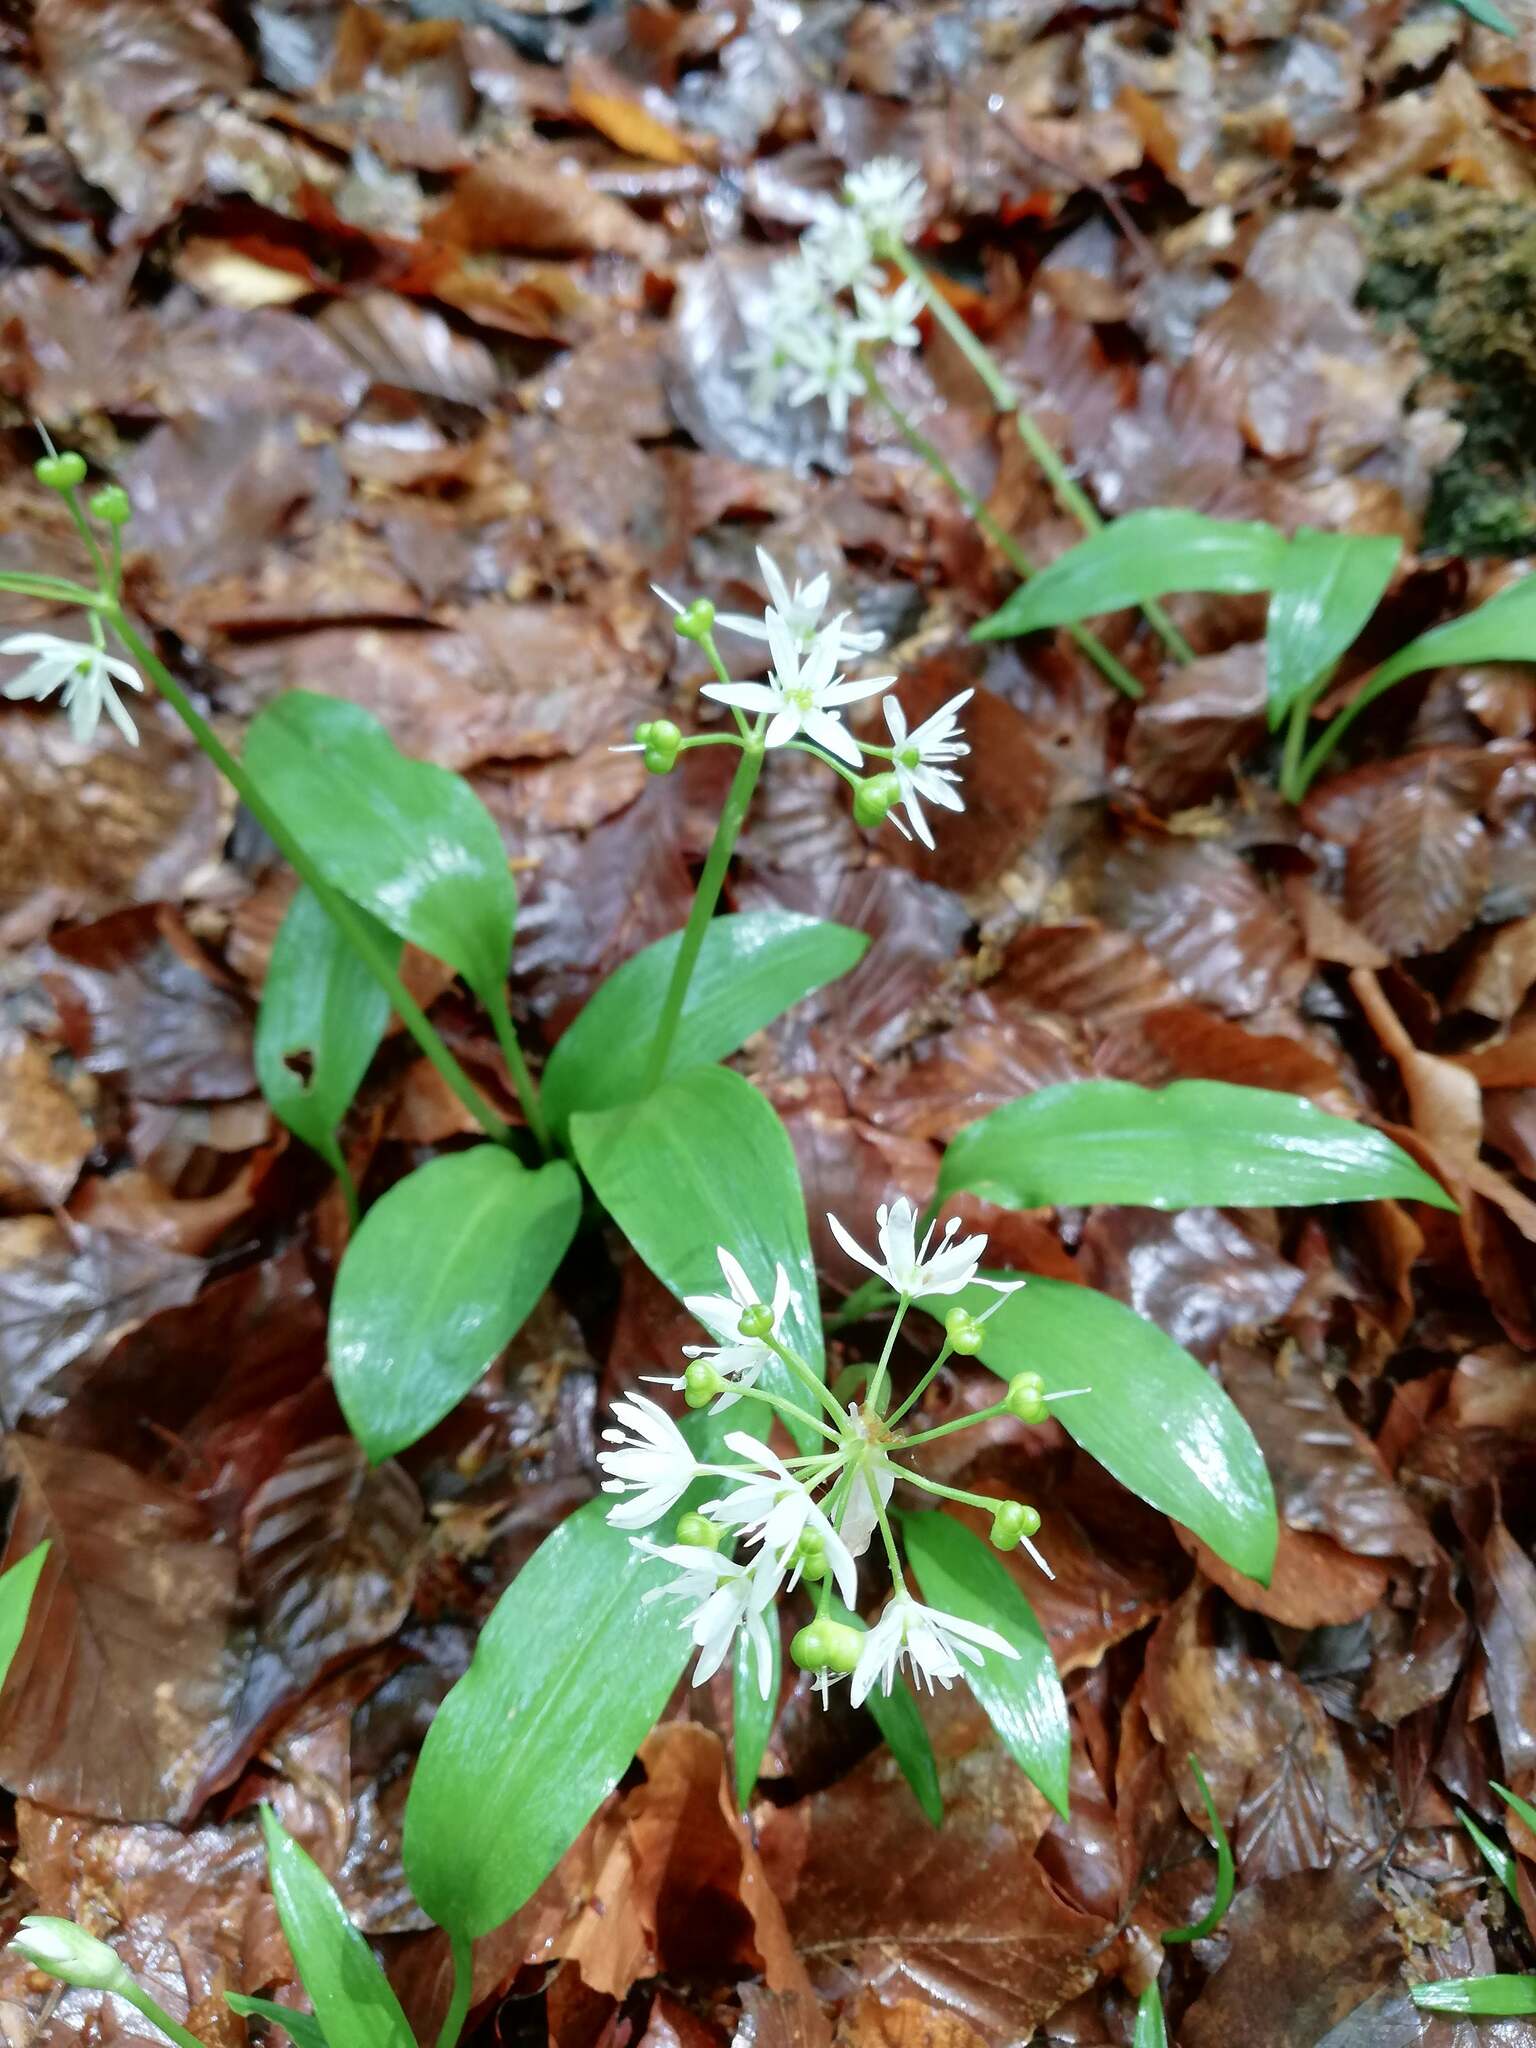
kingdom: Plantae
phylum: Tracheophyta
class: Liliopsida
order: Asparagales
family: Amaryllidaceae
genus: Allium
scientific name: Allium ursinum
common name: Ramsons
